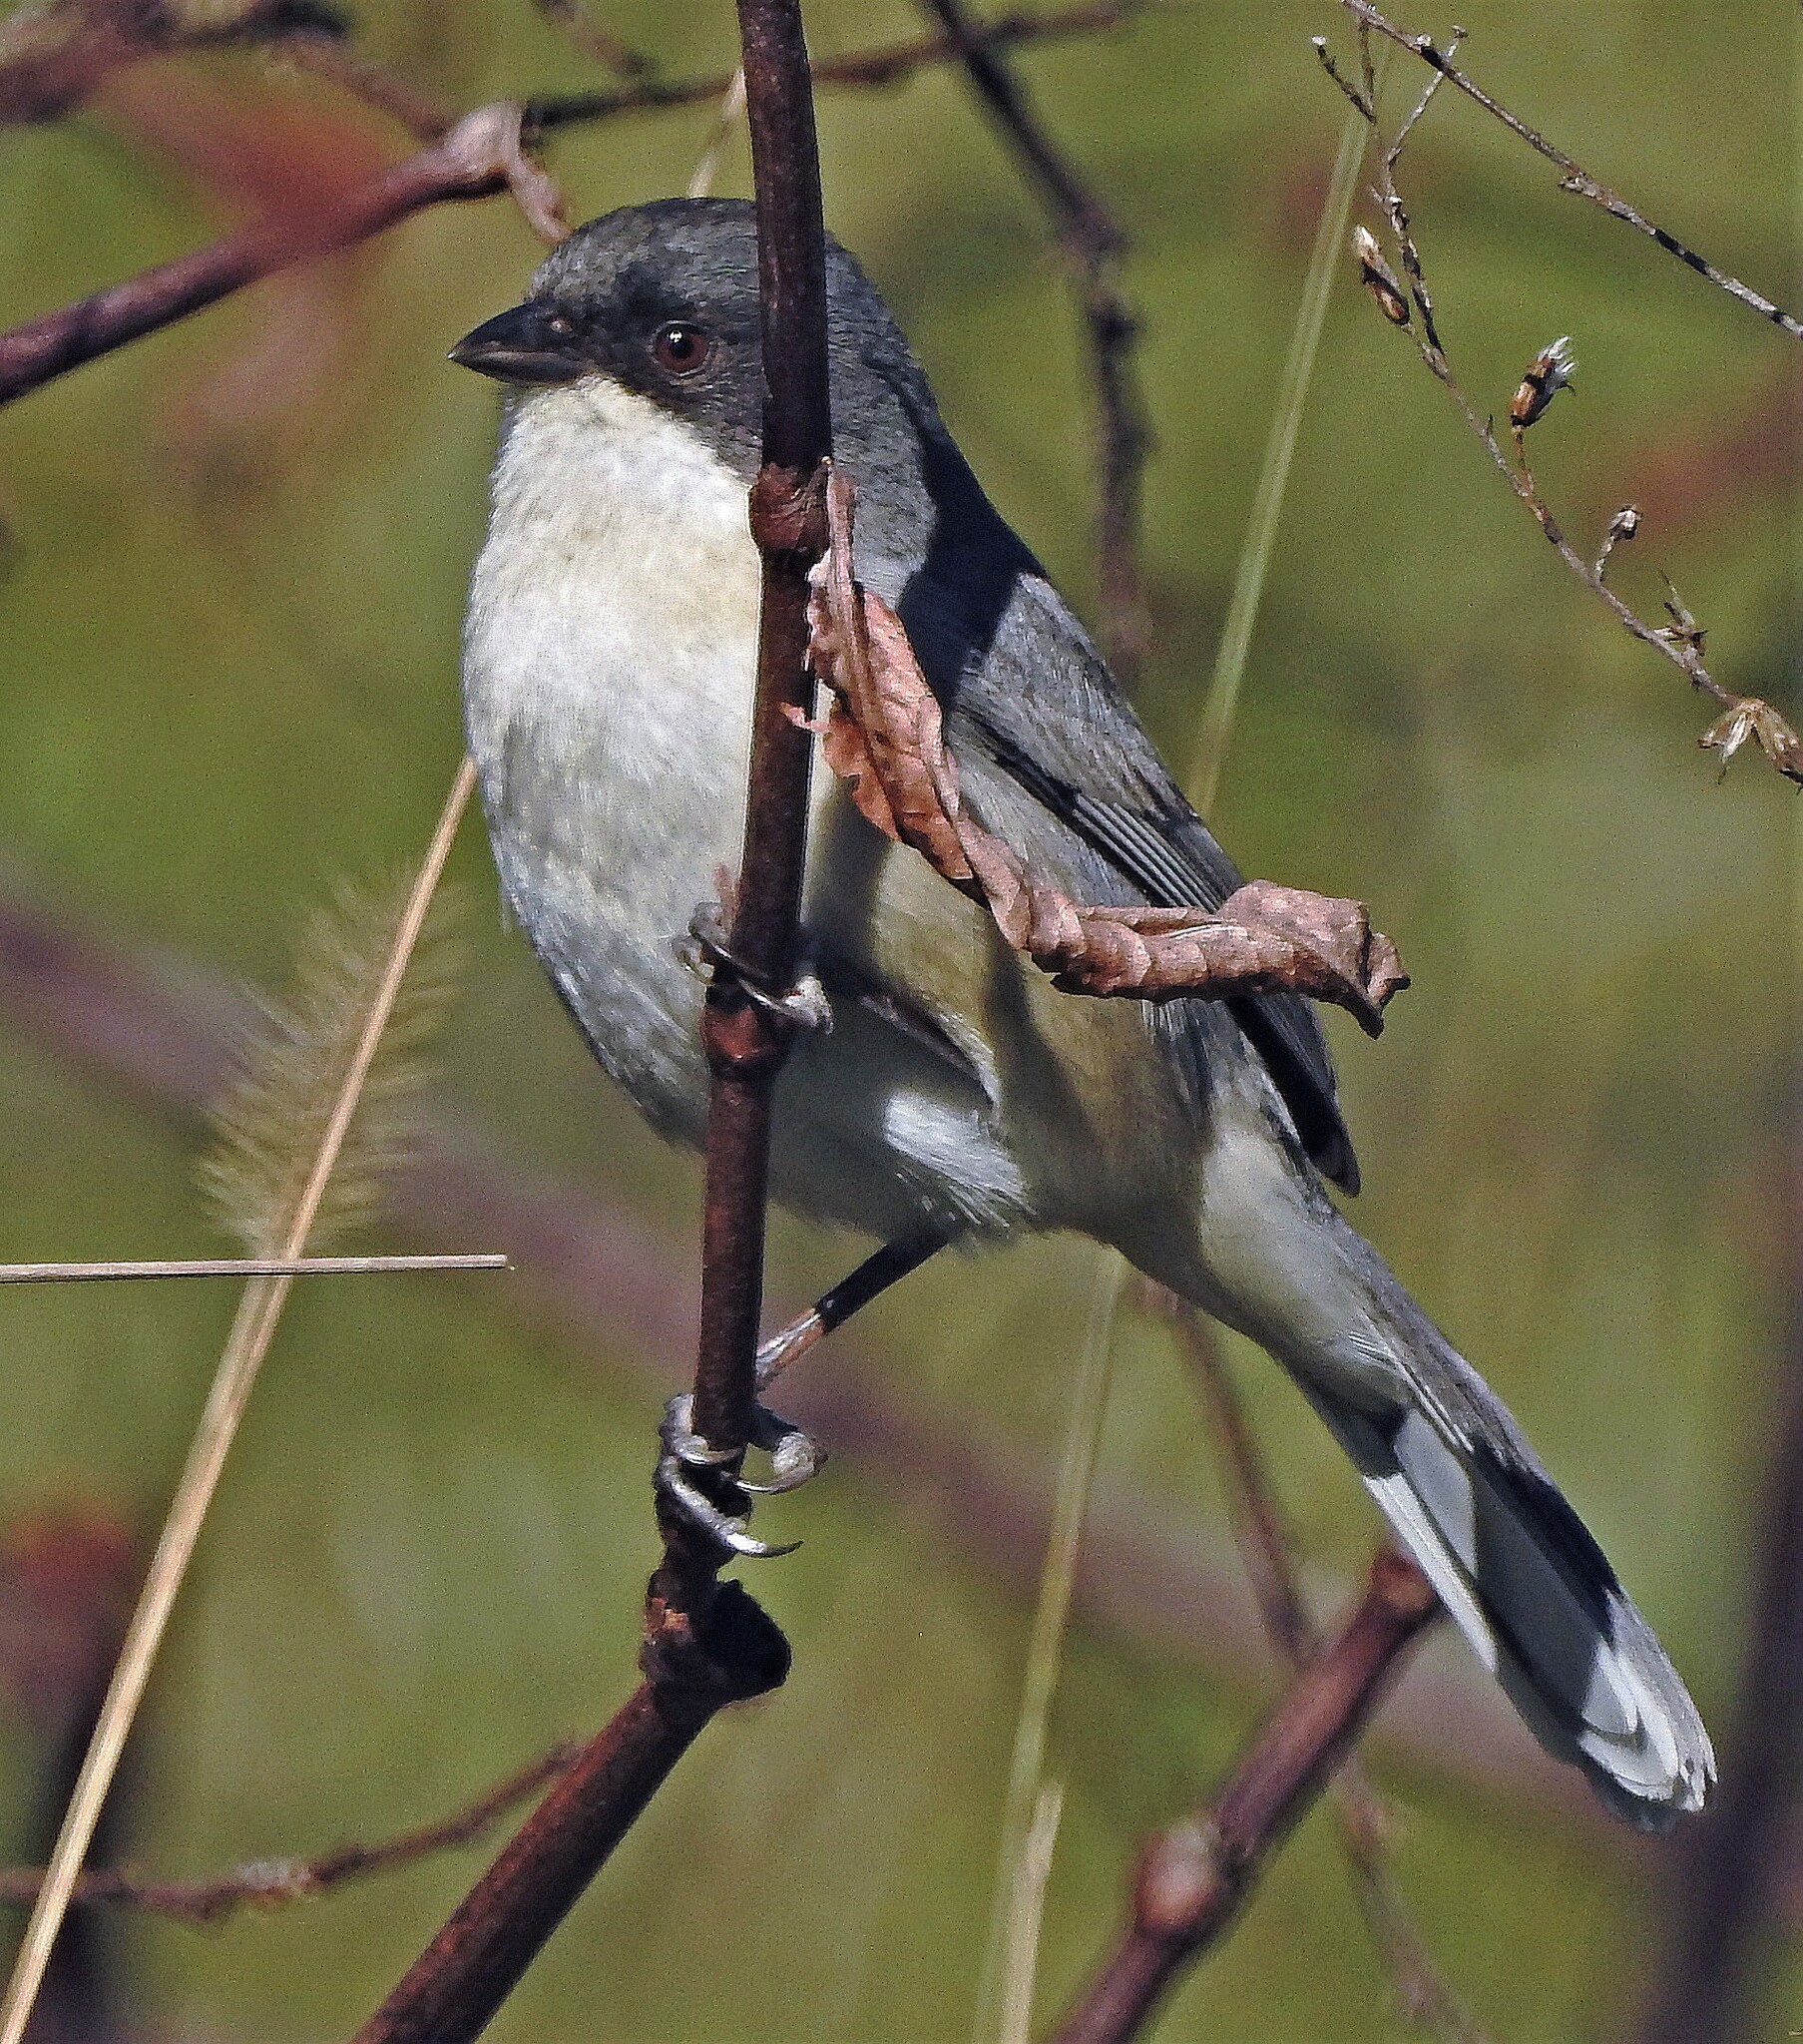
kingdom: Animalia
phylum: Chordata
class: Aves
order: Passeriformes
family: Thraupidae
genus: Microspingus
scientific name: Microspingus melanoleucus
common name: Black-capped warbling-finch
